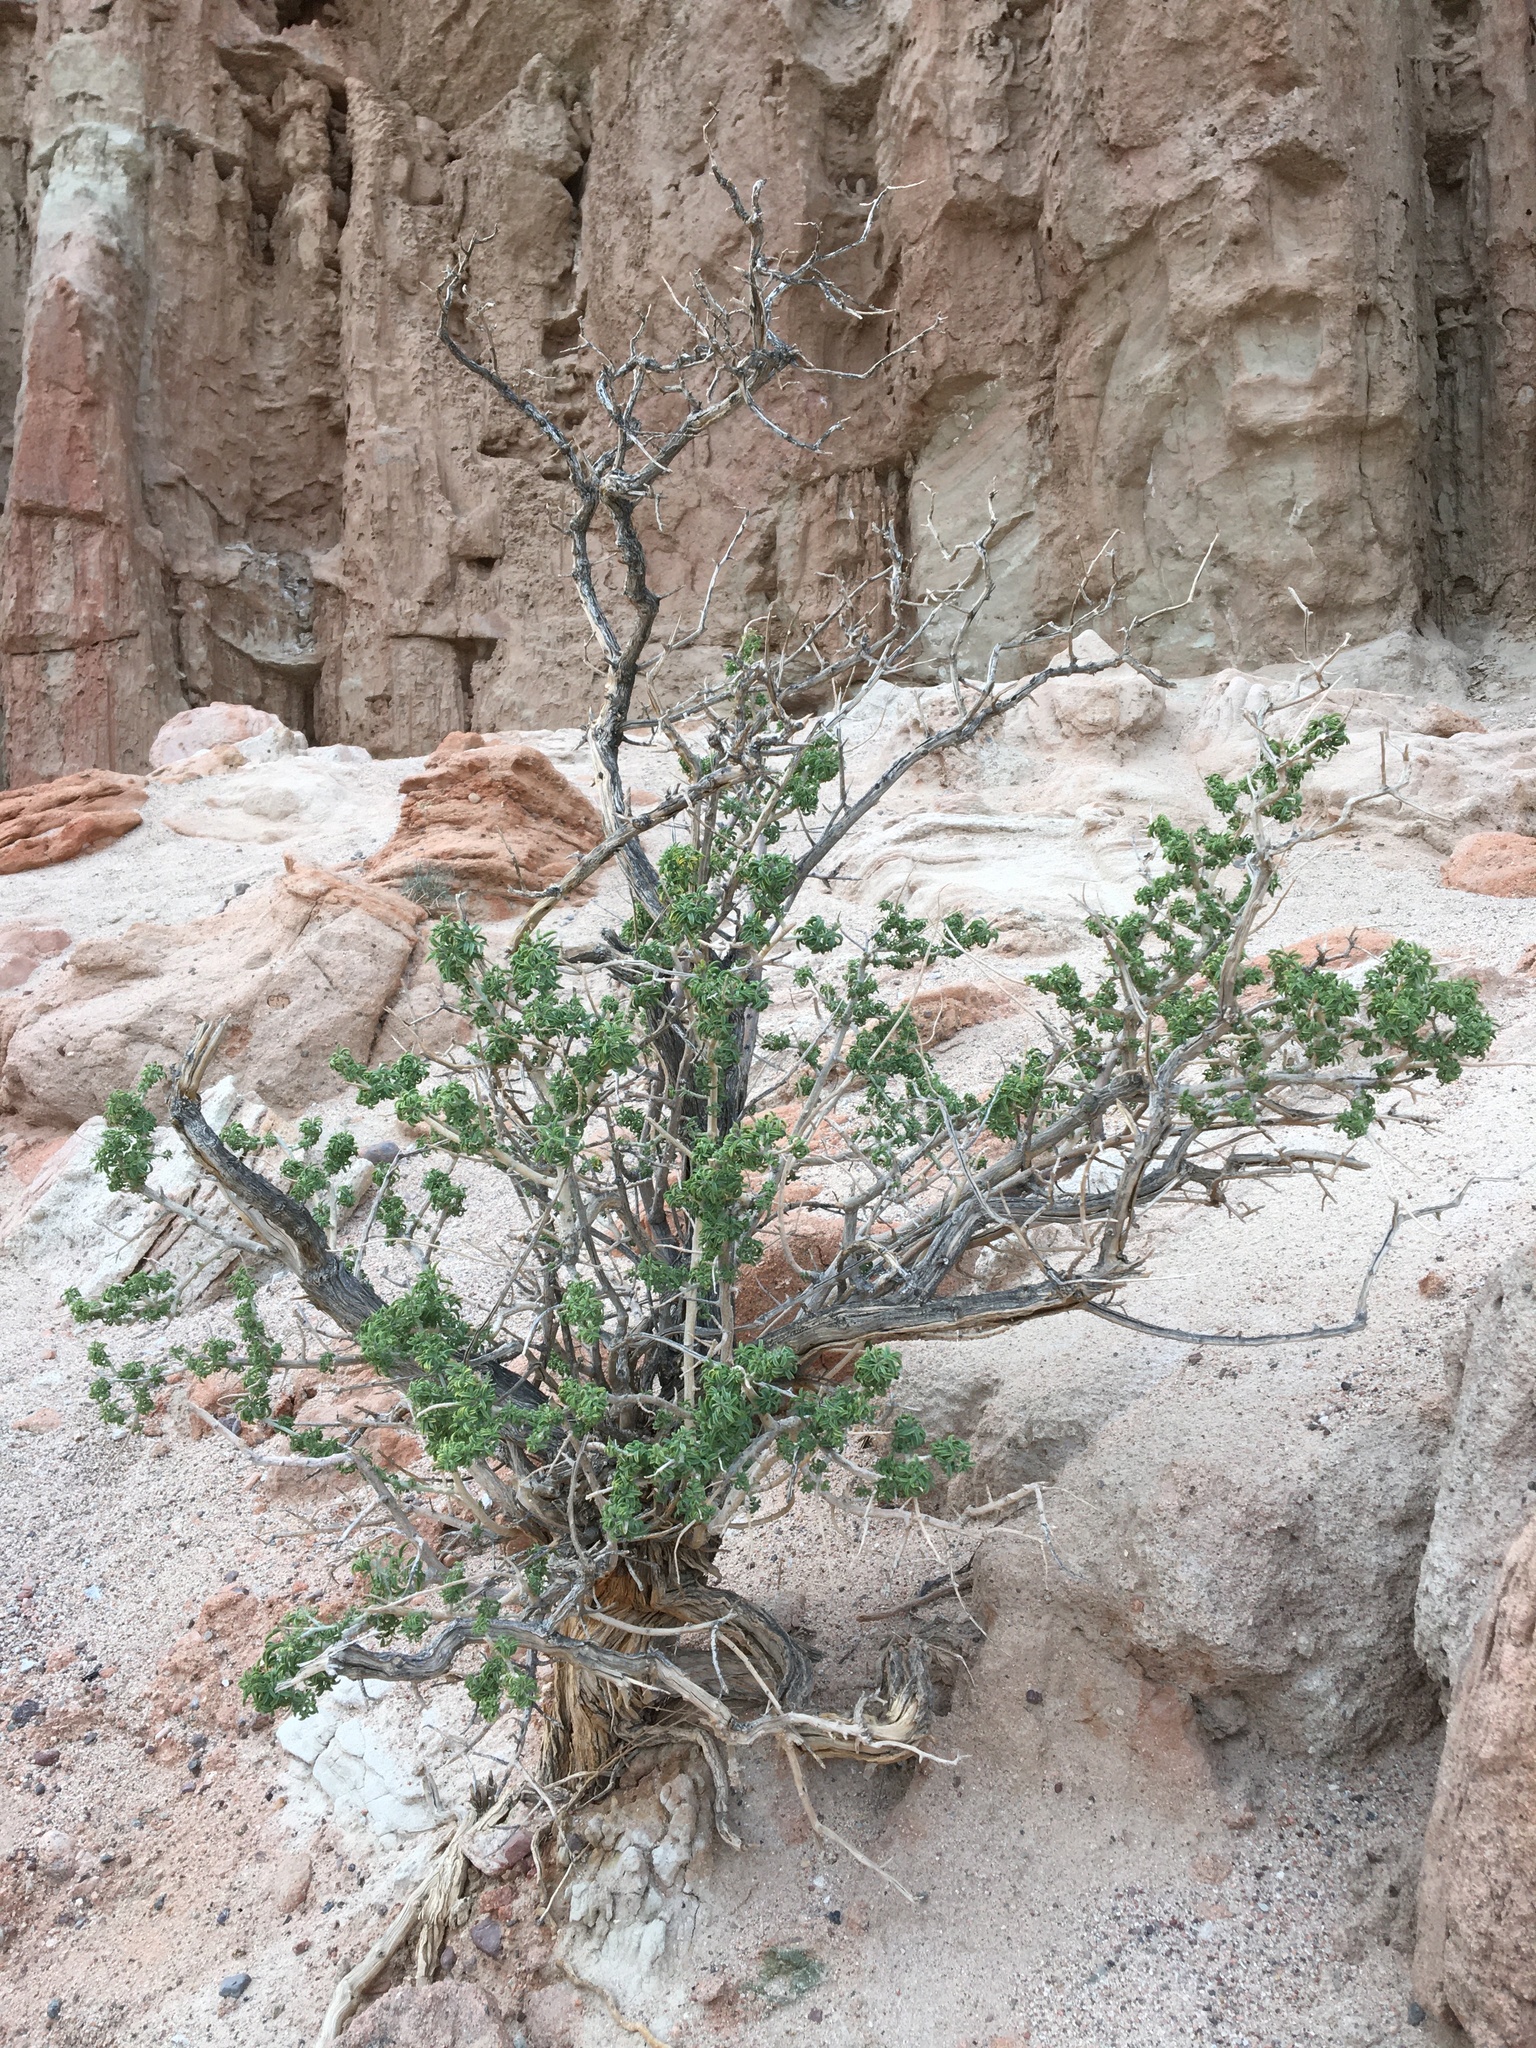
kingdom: Plantae
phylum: Tracheophyta
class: Magnoliopsida
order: Brassicales
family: Cleomaceae
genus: Cleomella
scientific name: Cleomella arborea
